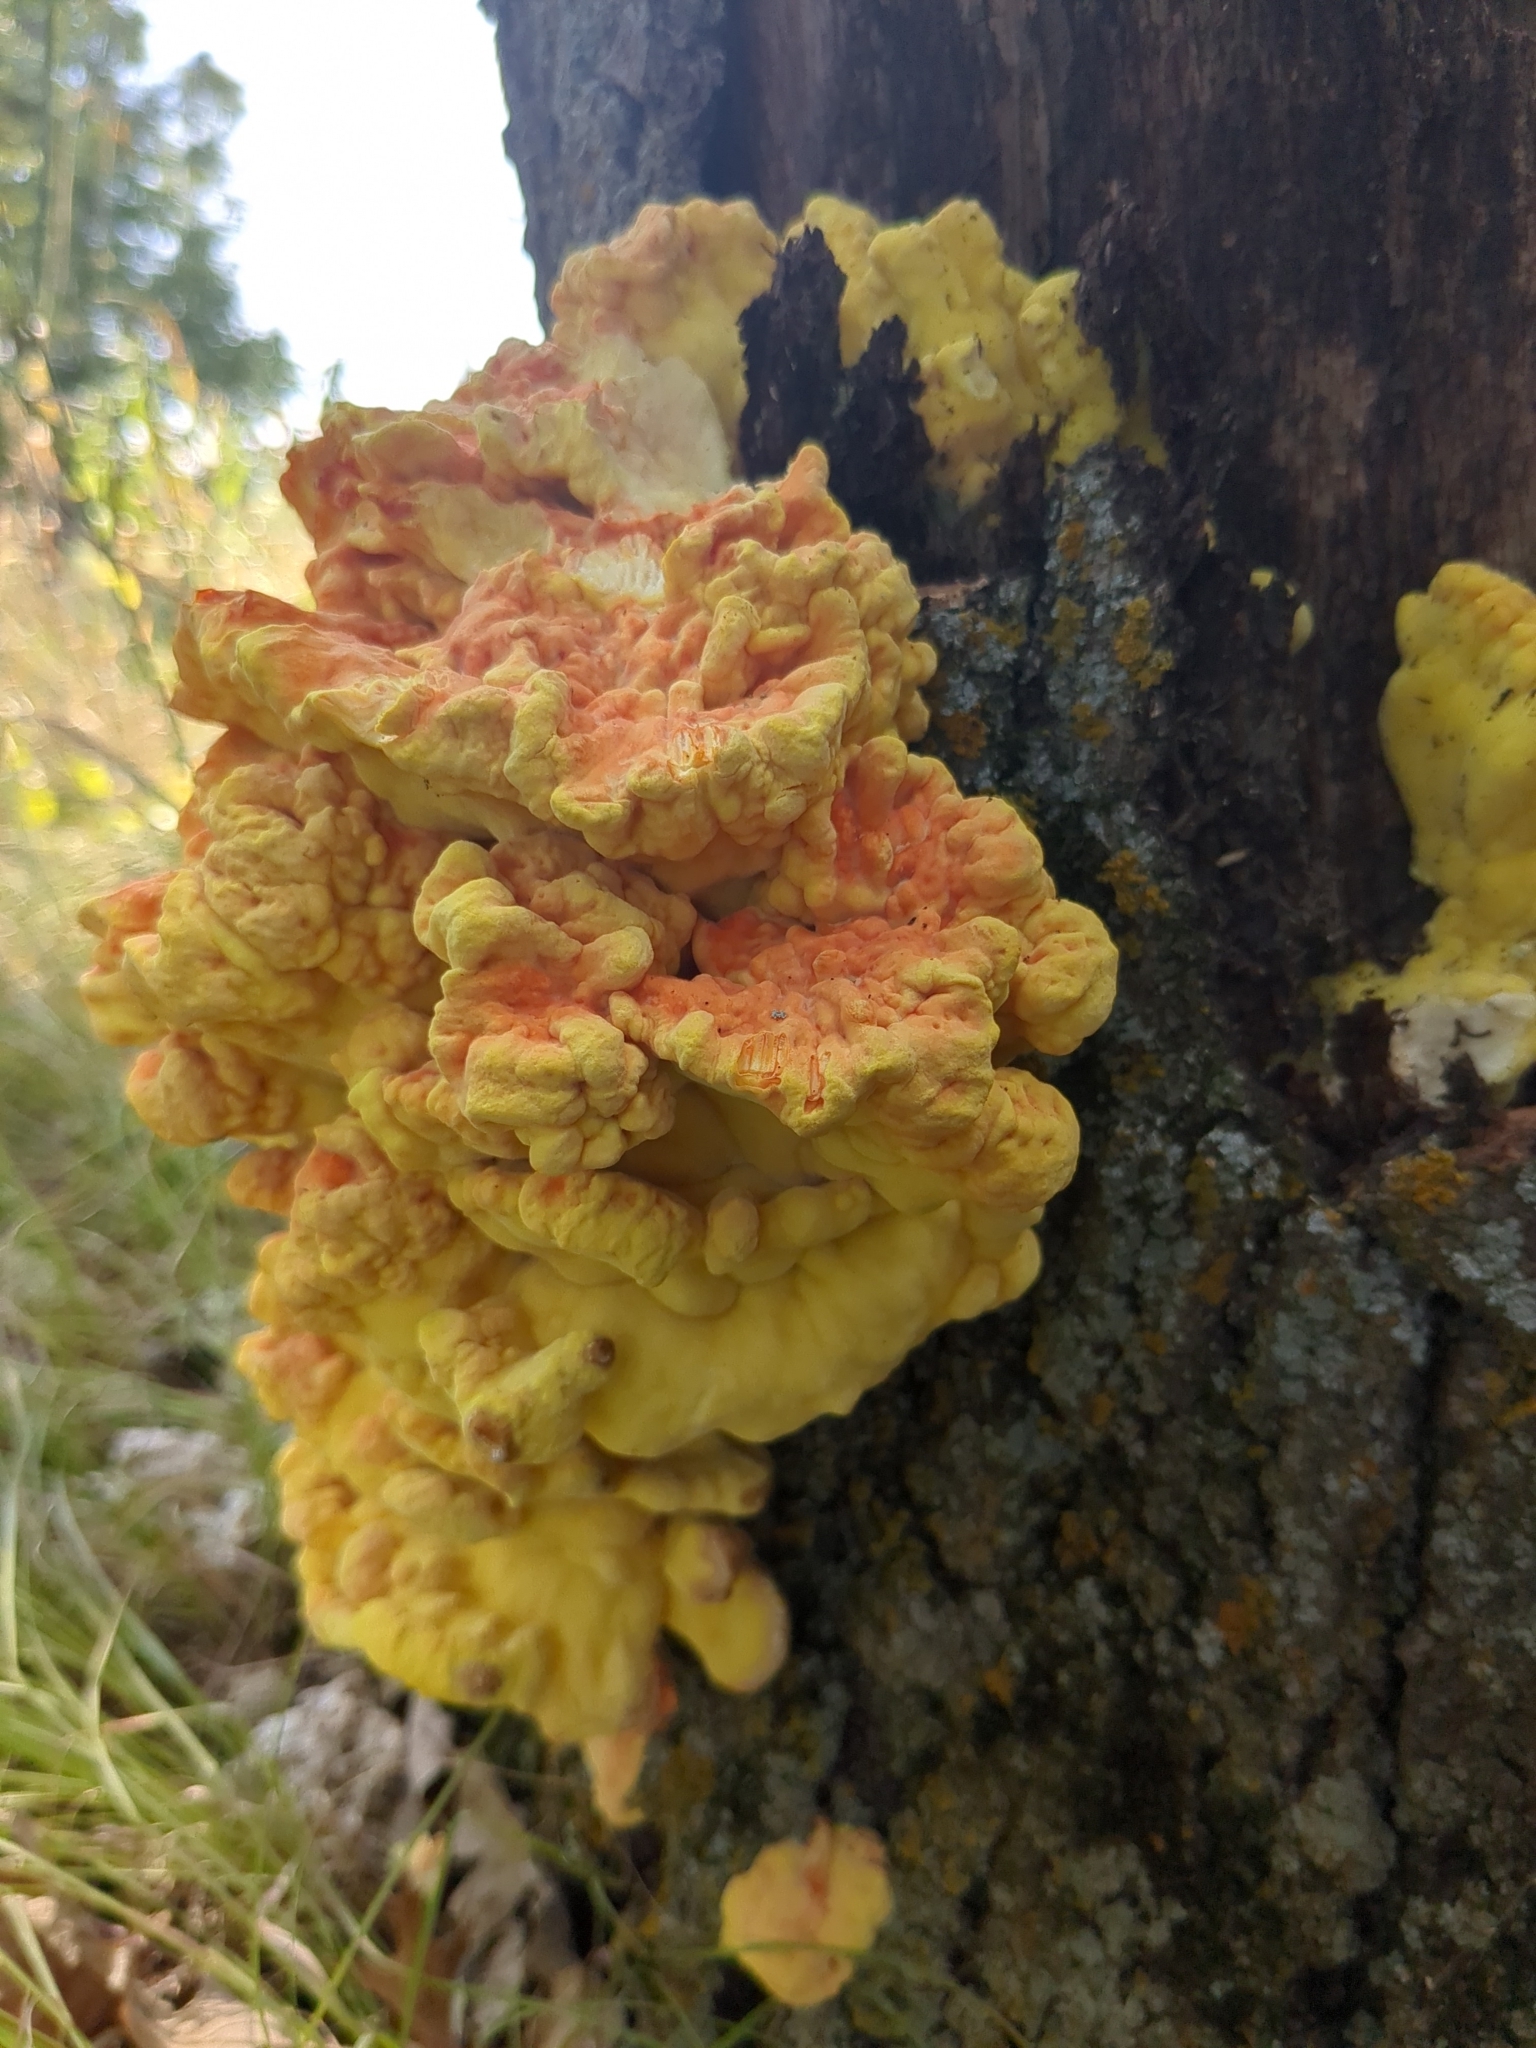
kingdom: Fungi
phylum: Basidiomycota
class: Agaricomycetes
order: Polyporales
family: Laetiporaceae
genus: Laetiporus
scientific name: Laetiporus sulphureus
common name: Chicken of the woods
